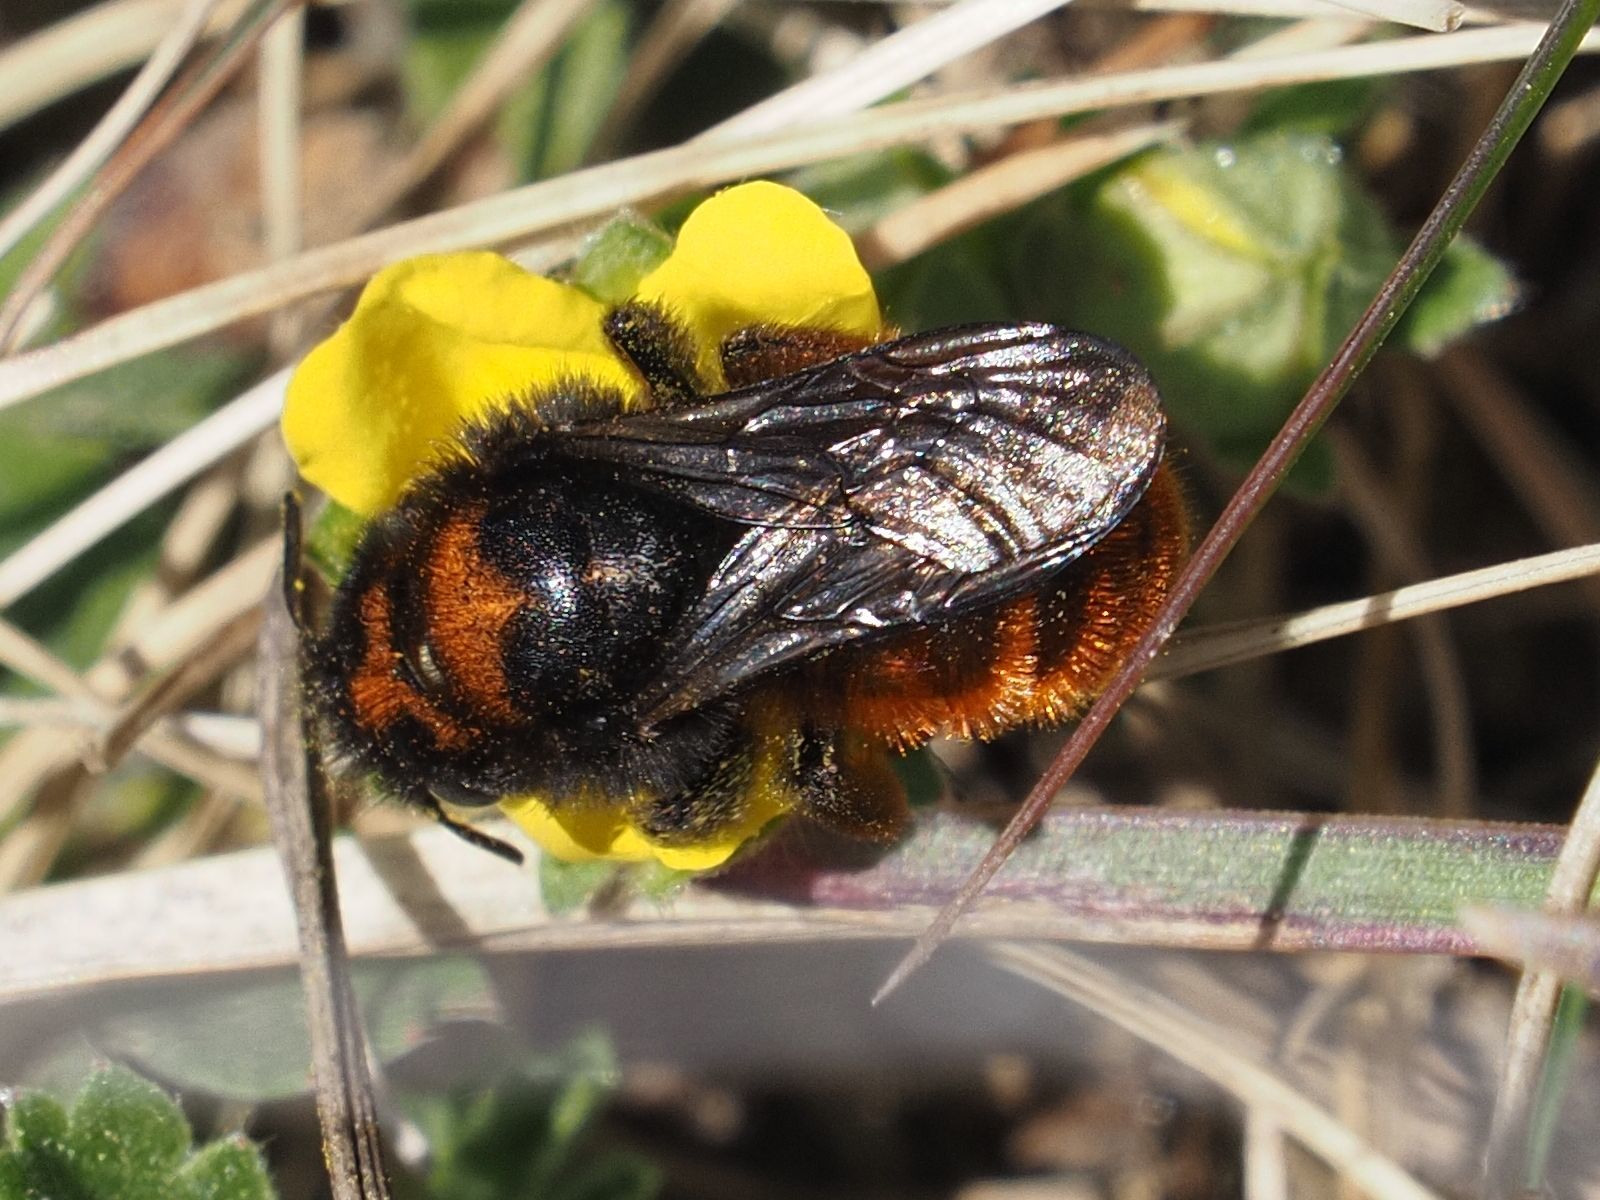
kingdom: Animalia
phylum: Arthropoda
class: Insecta
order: Hymenoptera
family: Megachilidae
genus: Osmia
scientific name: Osmia bicolor
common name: Red-tailed mason bee
